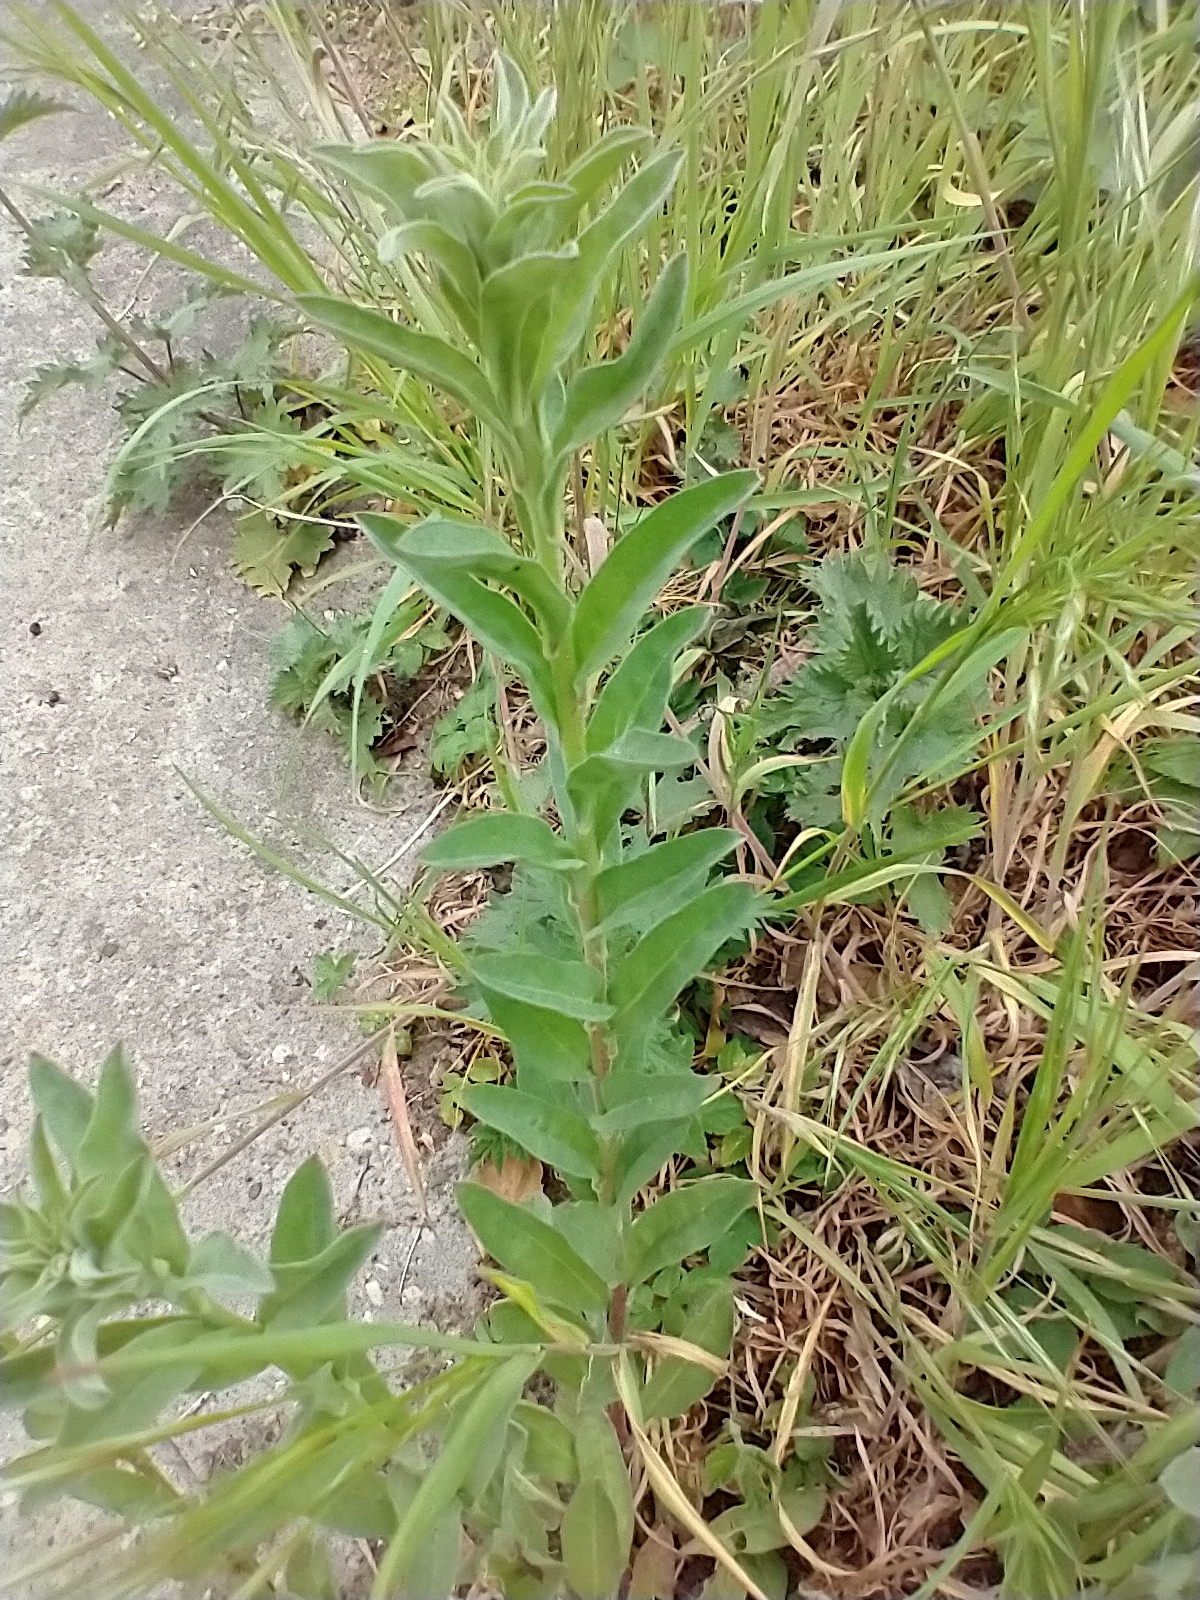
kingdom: Plantae
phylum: Tracheophyta
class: Magnoliopsida
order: Brassicales
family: Brassicaceae
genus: Berteroa
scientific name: Berteroa incana
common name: Hoary alison
